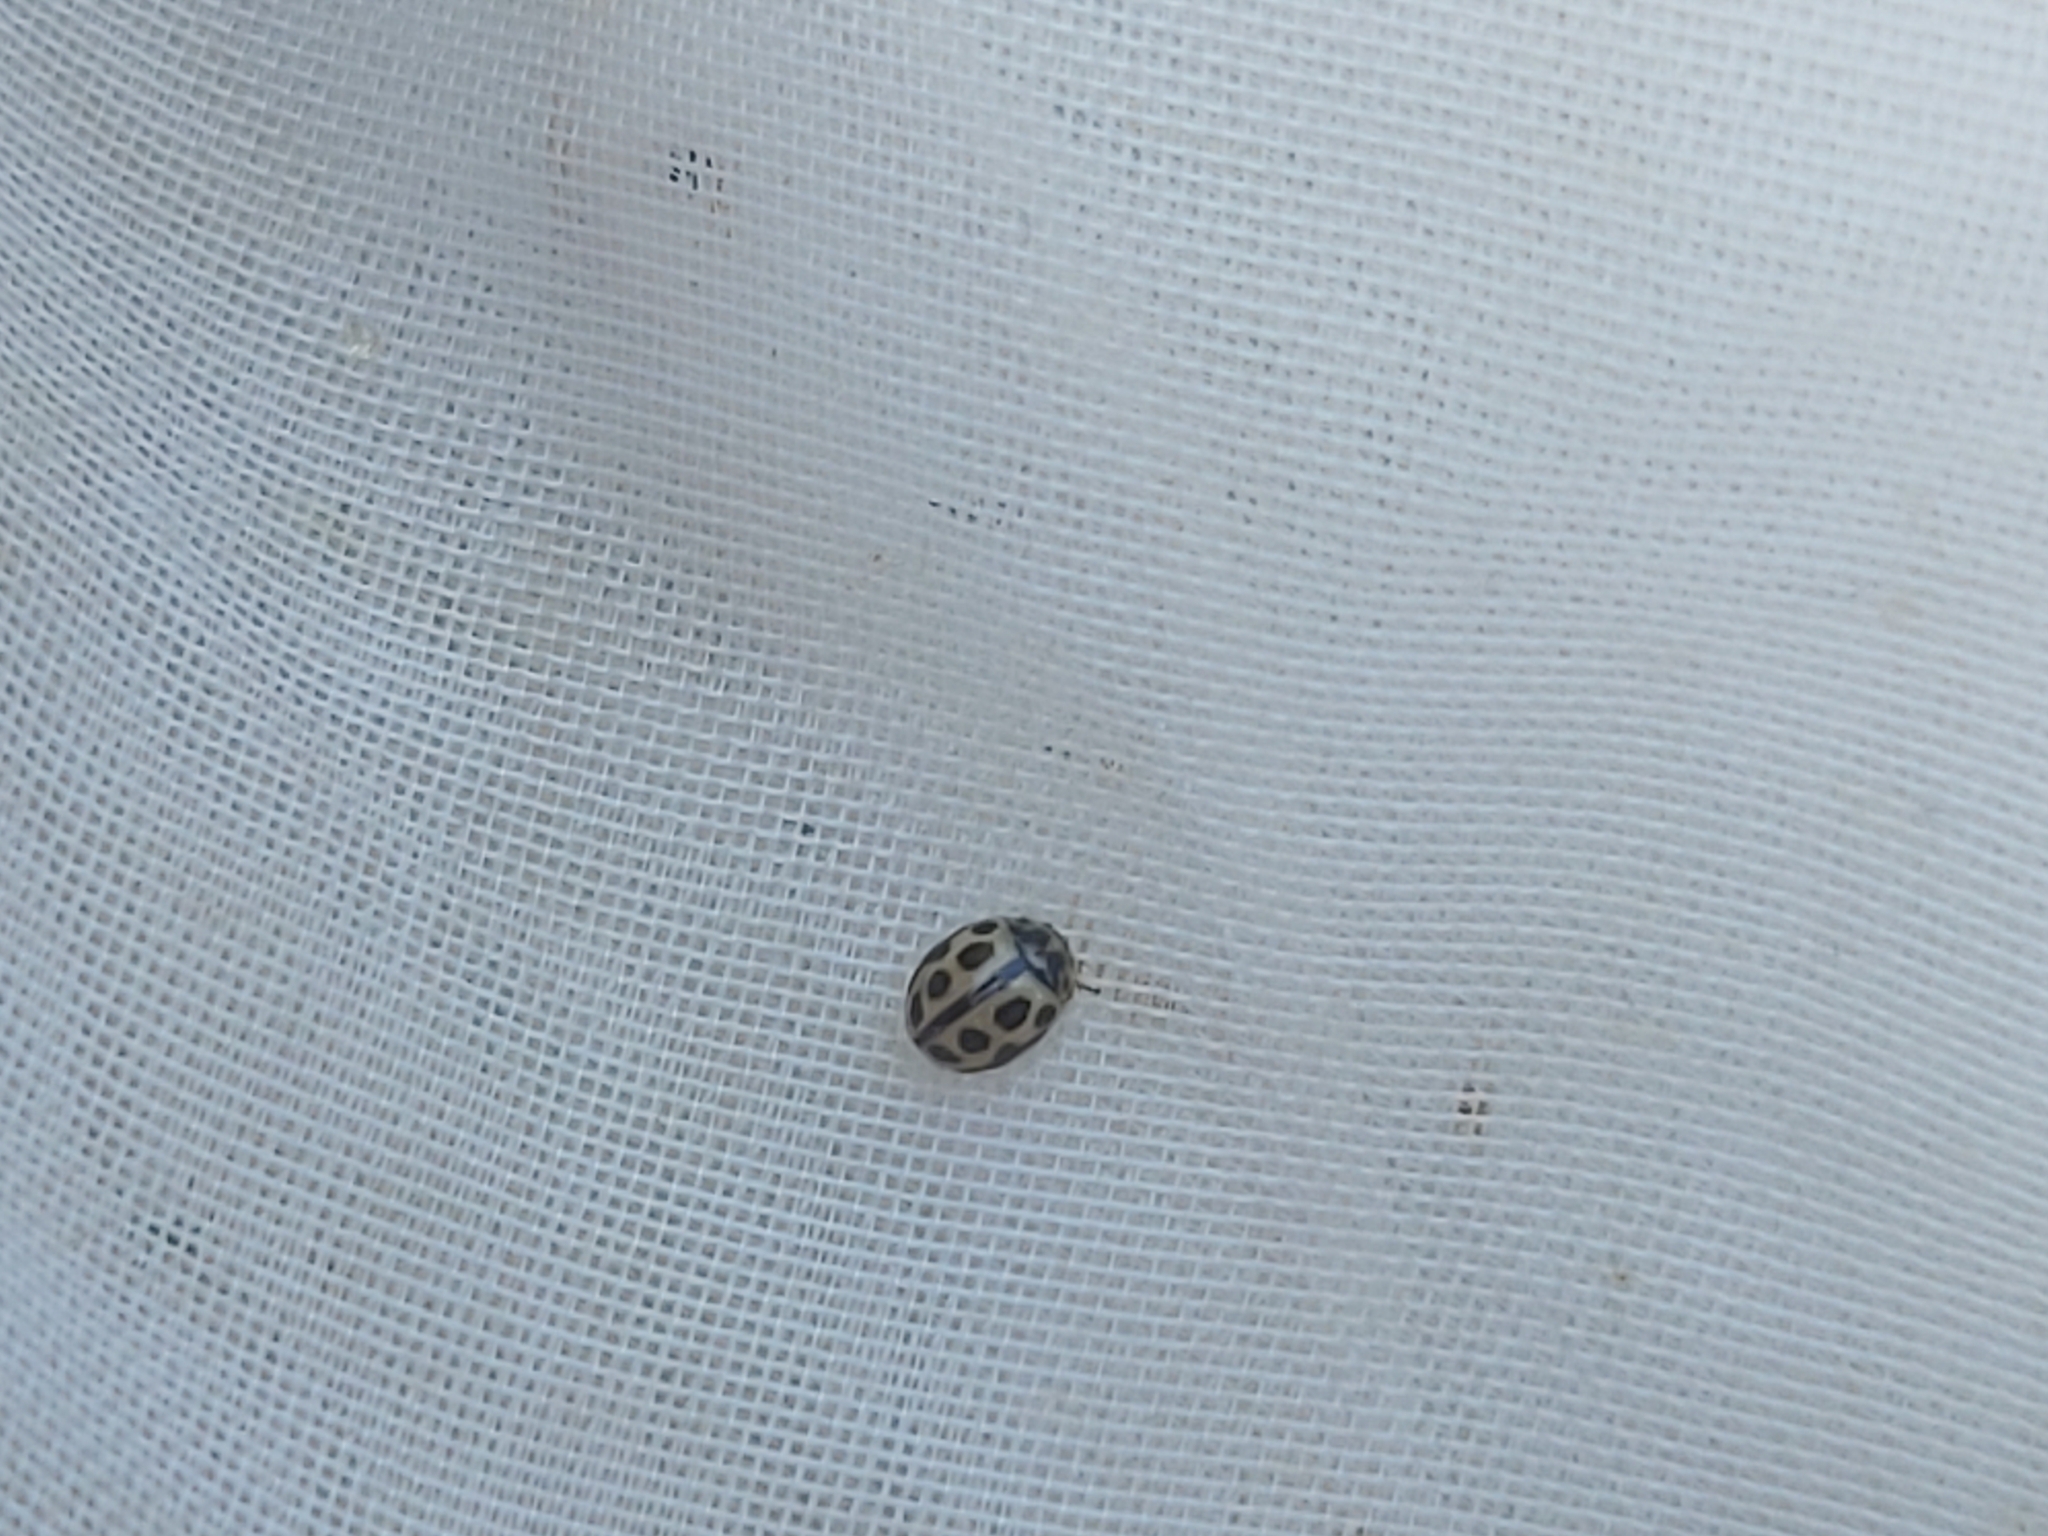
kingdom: Animalia
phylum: Arthropoda
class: Insecta
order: Coleoptera
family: Coccinellidae
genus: Tytthaspis
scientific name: Tytthaspis sedecimpunctata
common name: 16-spot ladybird
